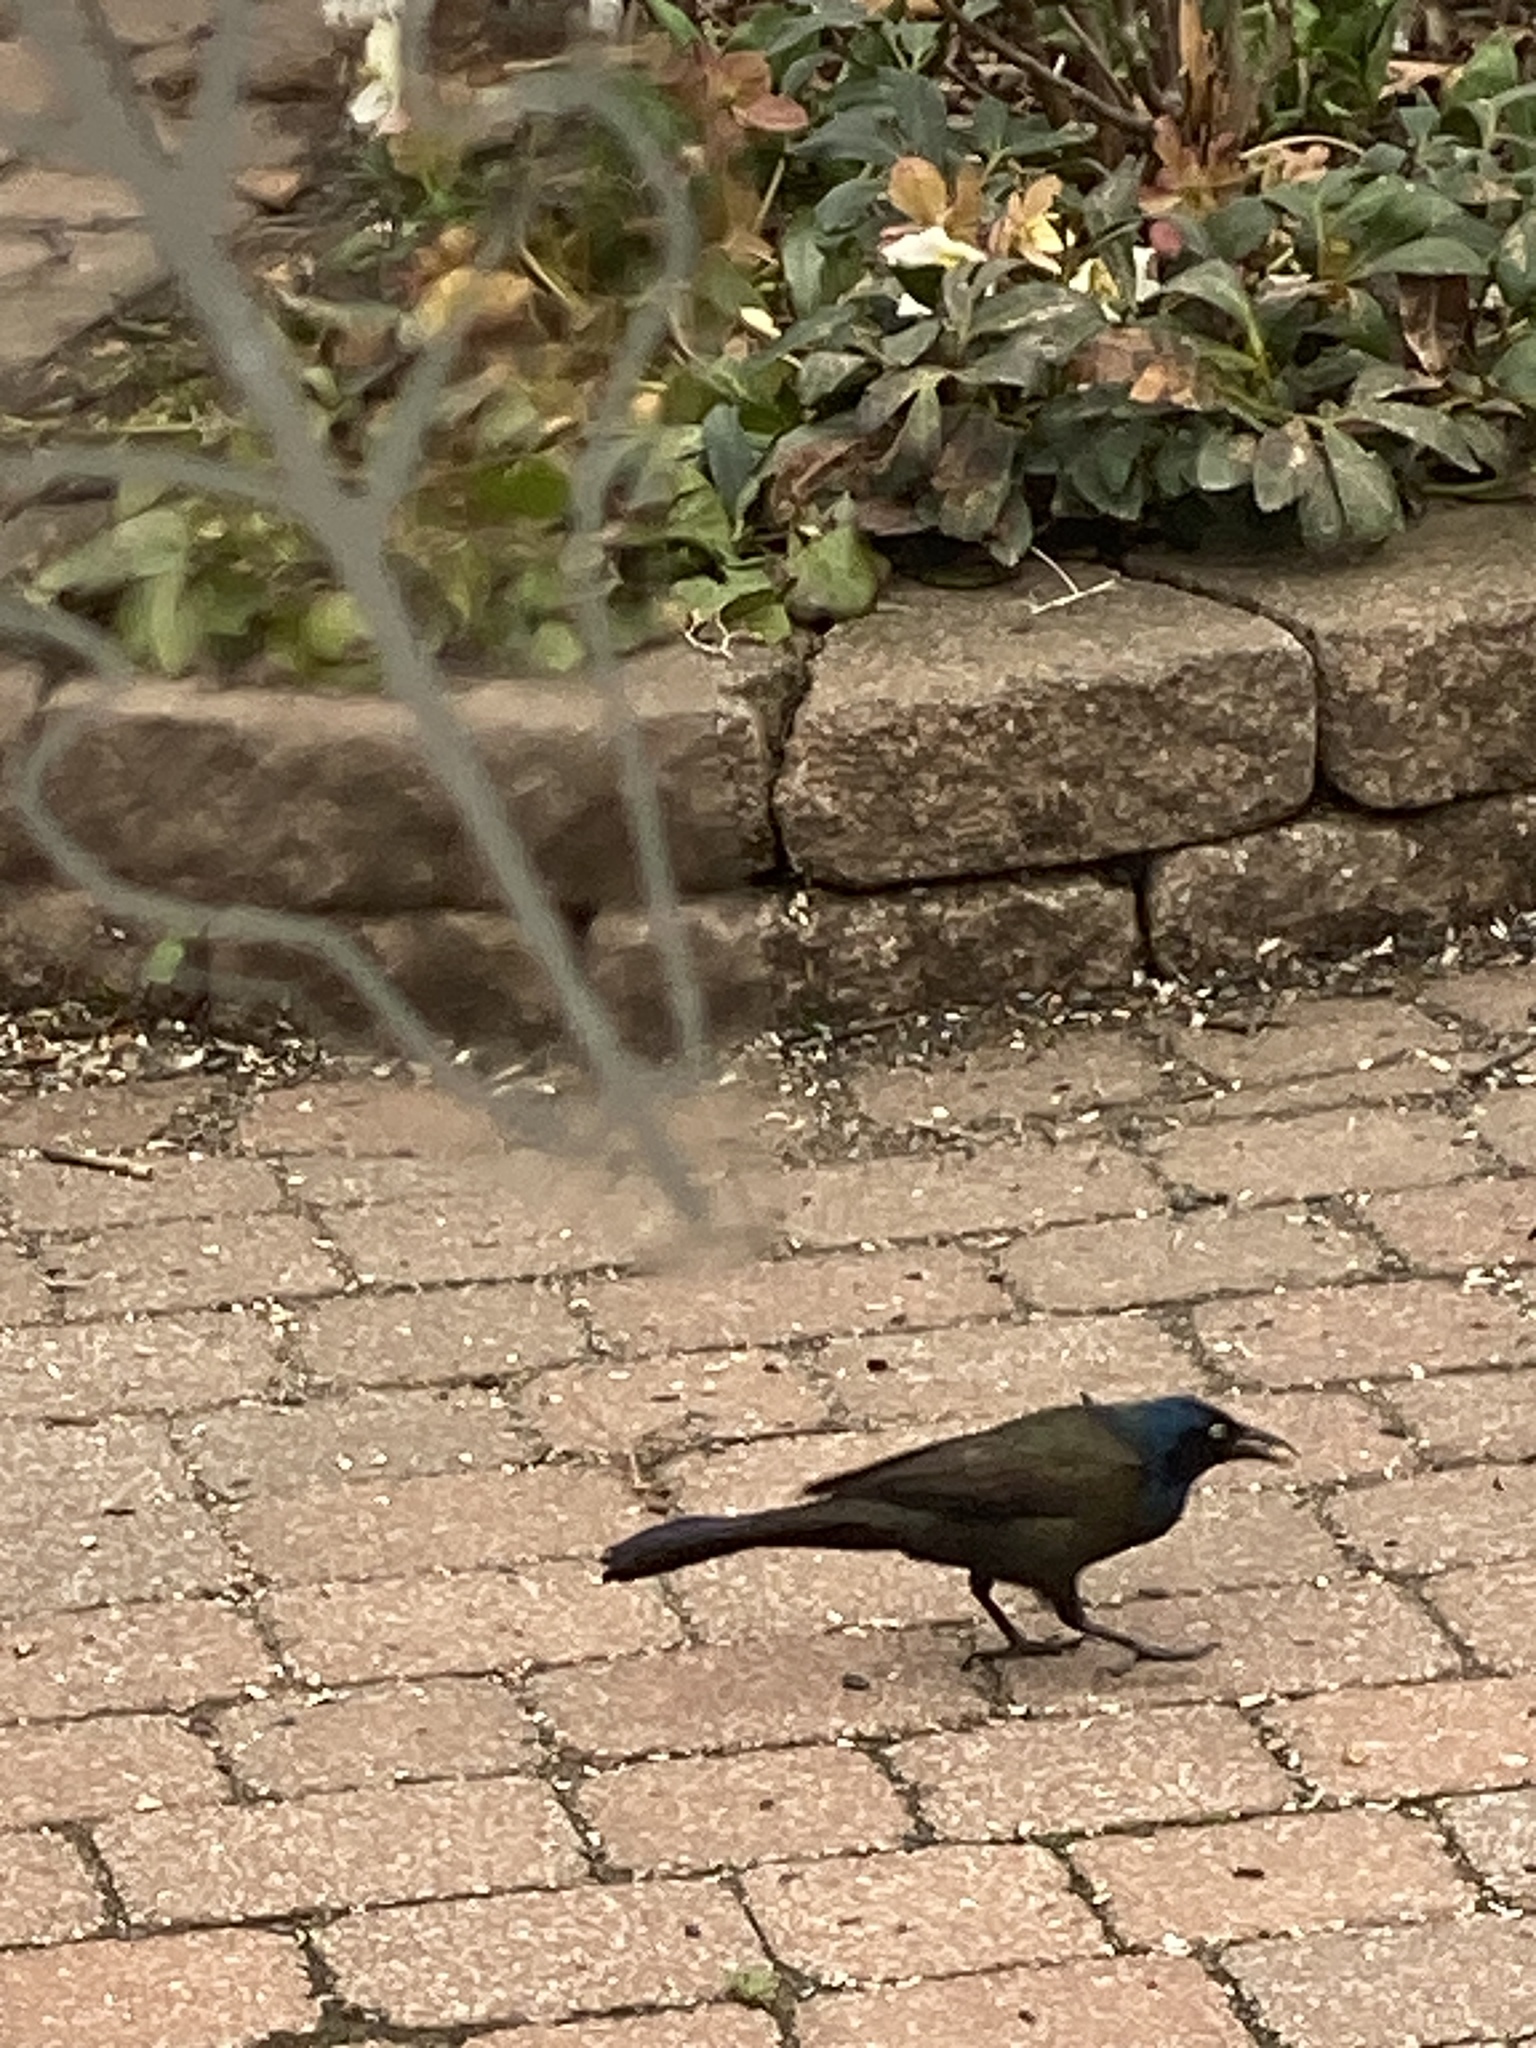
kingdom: Animalia
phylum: Chordata
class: Aves
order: Passeriformes
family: Icteridae
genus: Quiscalus
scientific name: Quiscalus quiscula
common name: Common grackle
